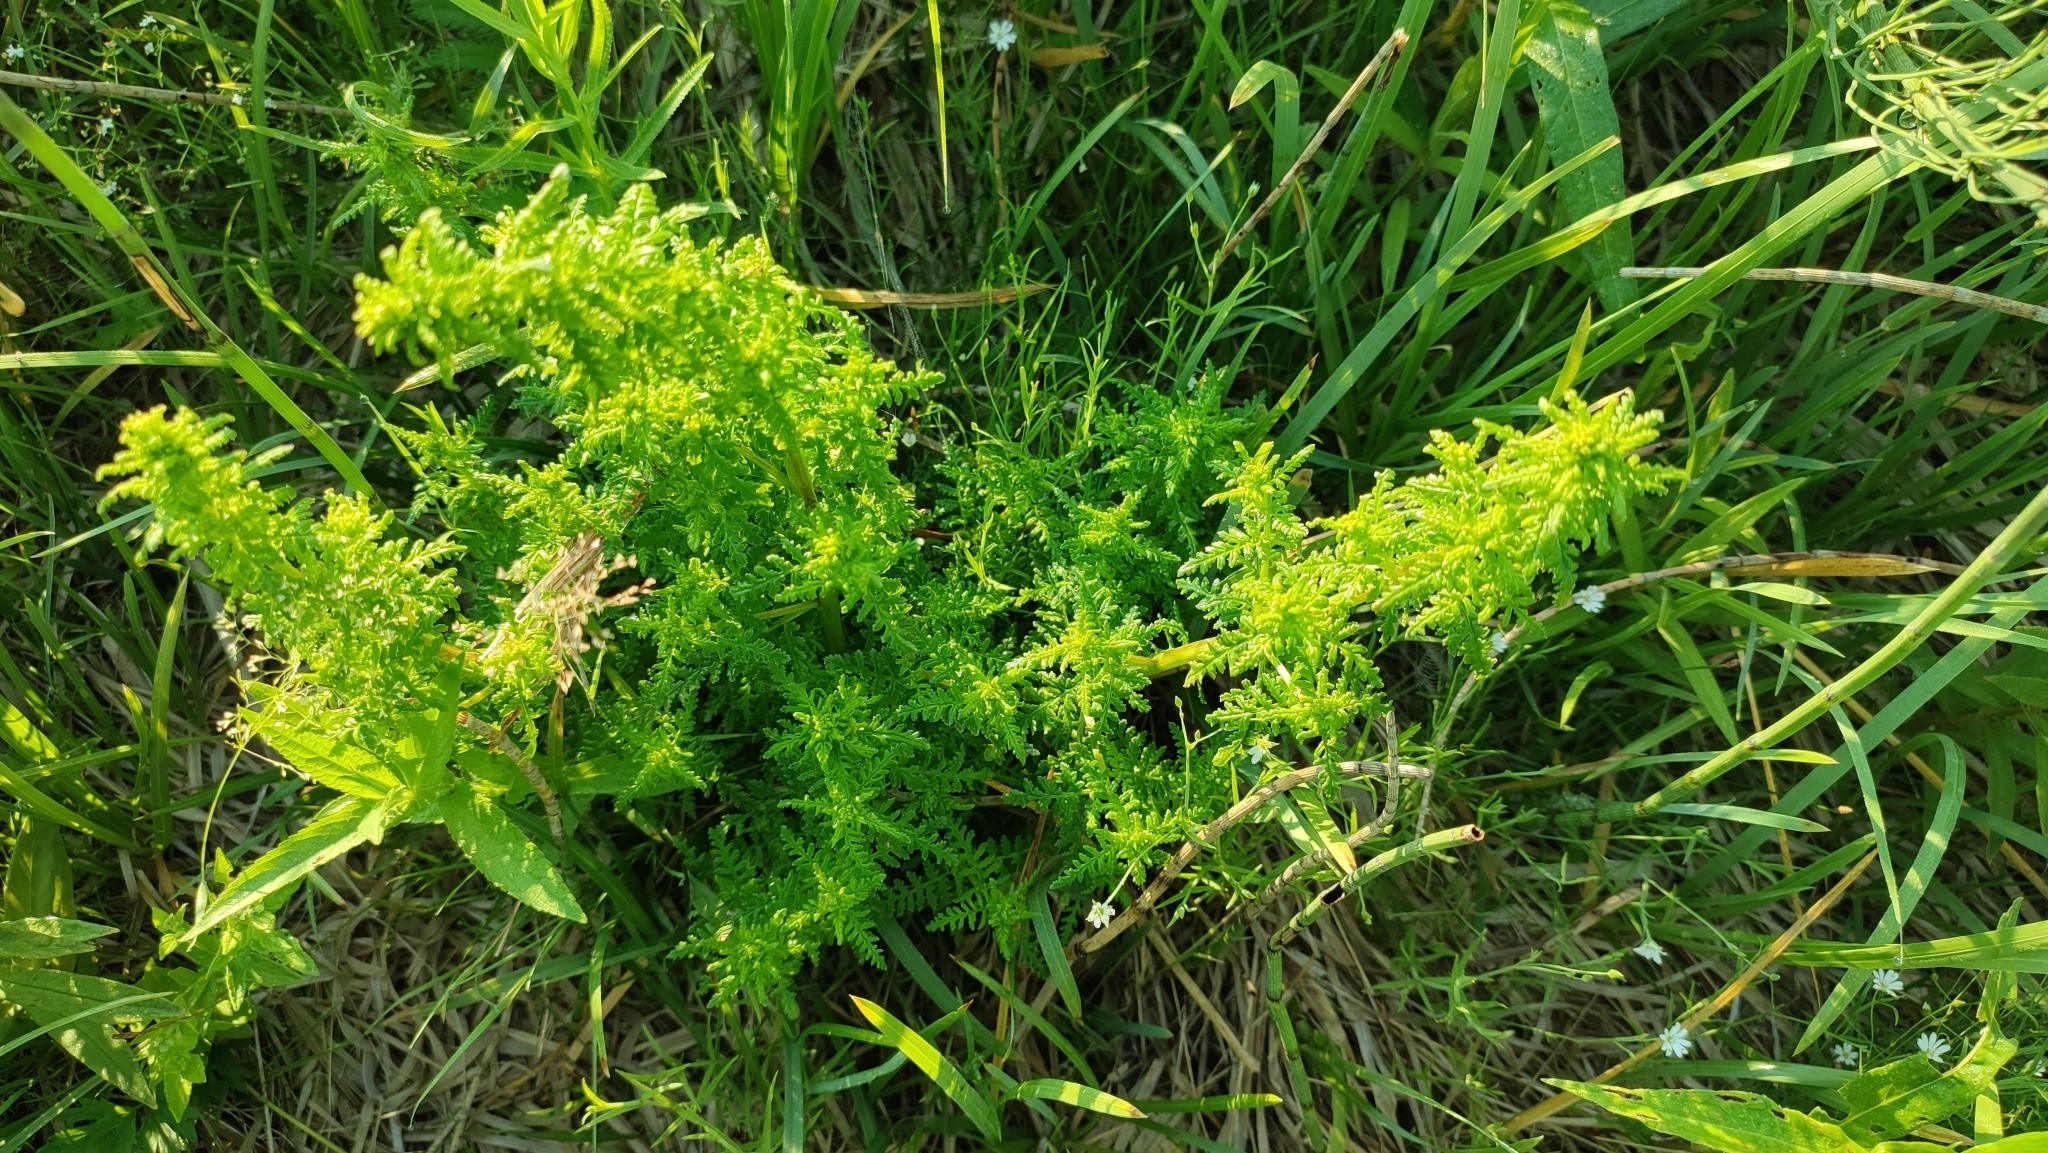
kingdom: Plantae
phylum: Tracheophyta
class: Magnoliopsida
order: Lamiales
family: Orobanchaceae
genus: Pedicularis
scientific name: Pedicularis karoi
